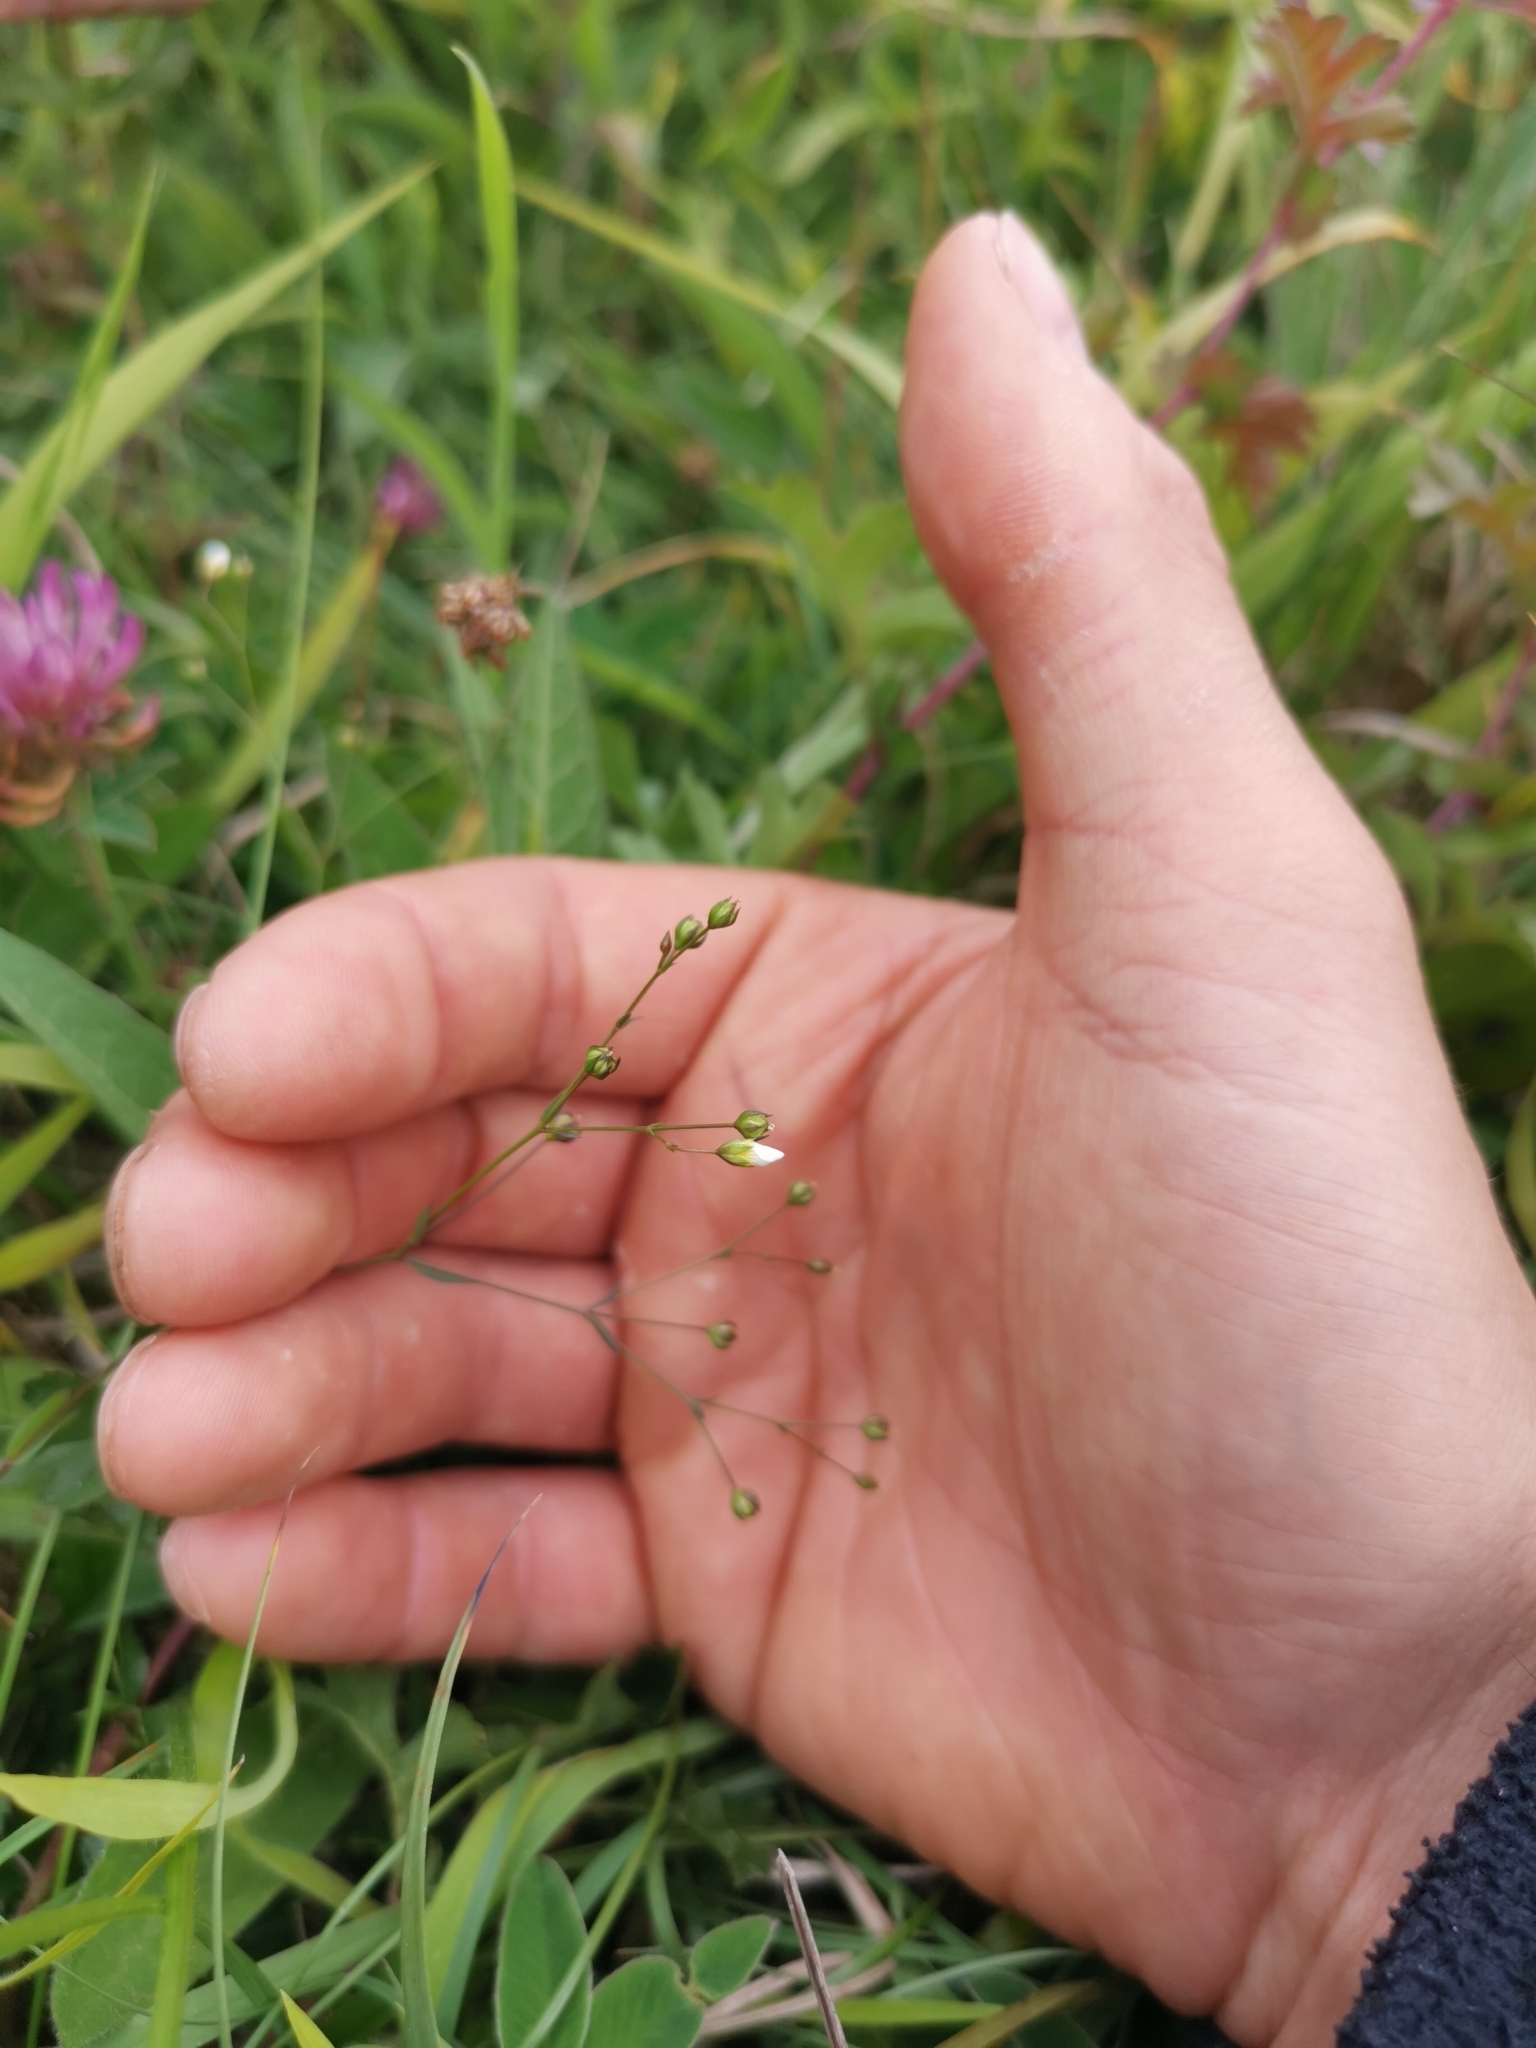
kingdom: Plantae
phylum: Tracheophyta
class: Magnoliopsida
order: Malpighiales
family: Linaceae
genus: Linum
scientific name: Linum catharticum
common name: Fairy flax
